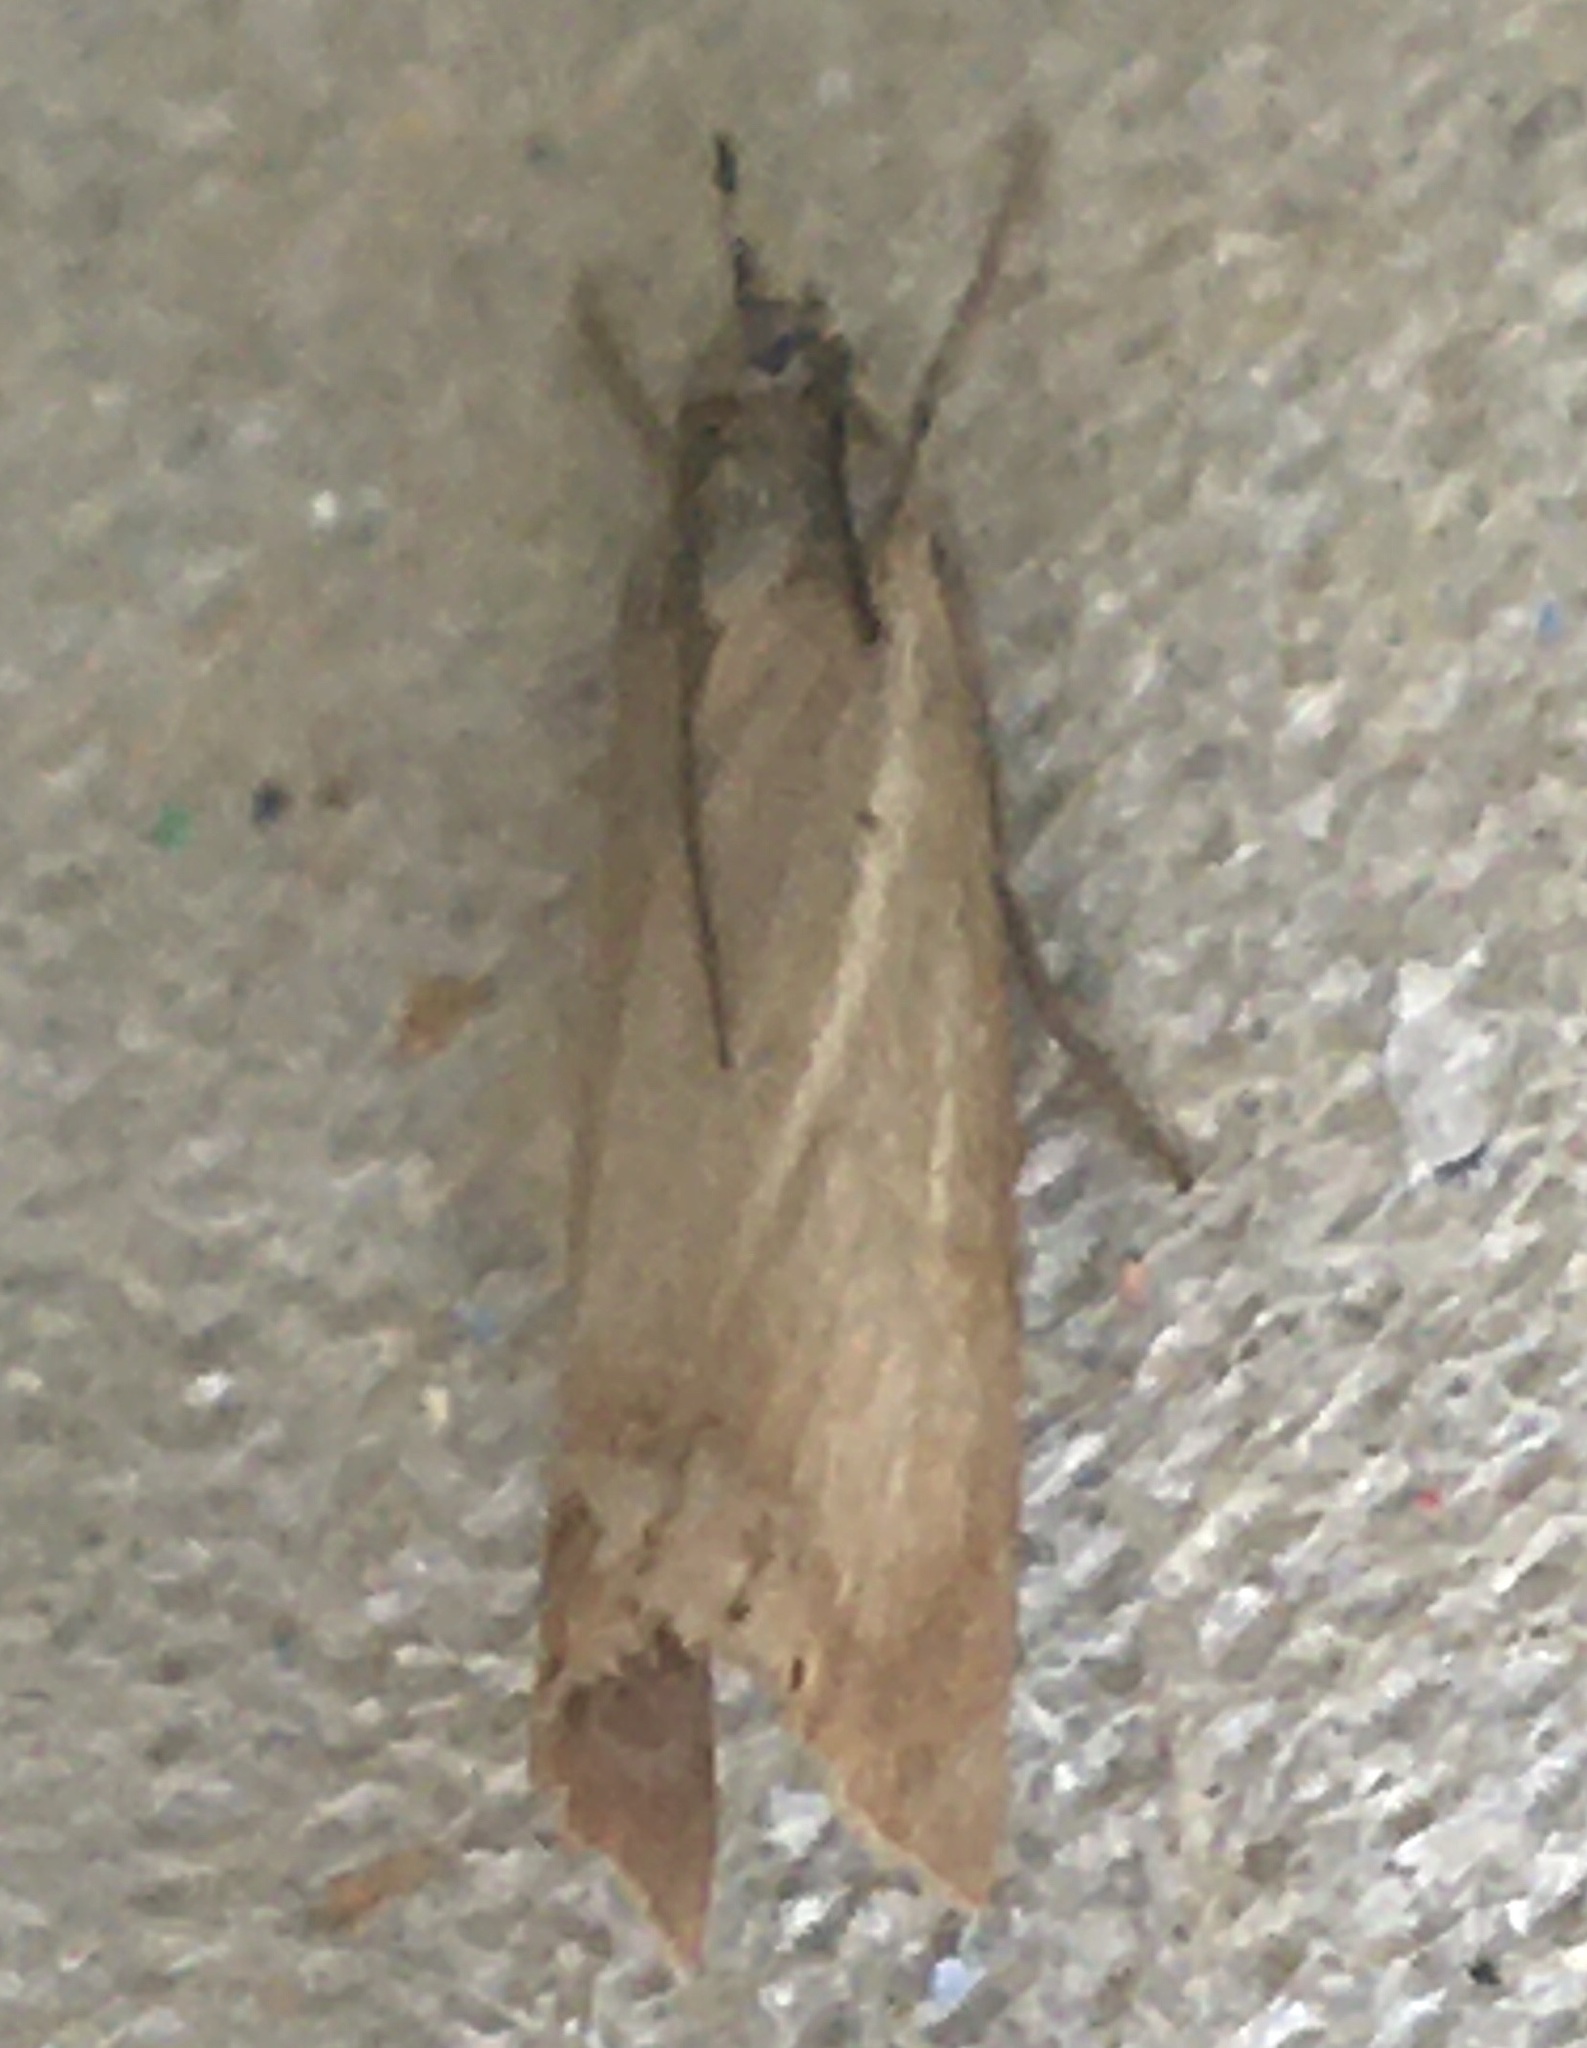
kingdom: Animalia
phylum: Arthropoda
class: Insecta
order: Lepidoptera
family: Crambidae
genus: Chrysoteuchia
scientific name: Chrysoteuchia culmella
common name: Garden grass-veneer
